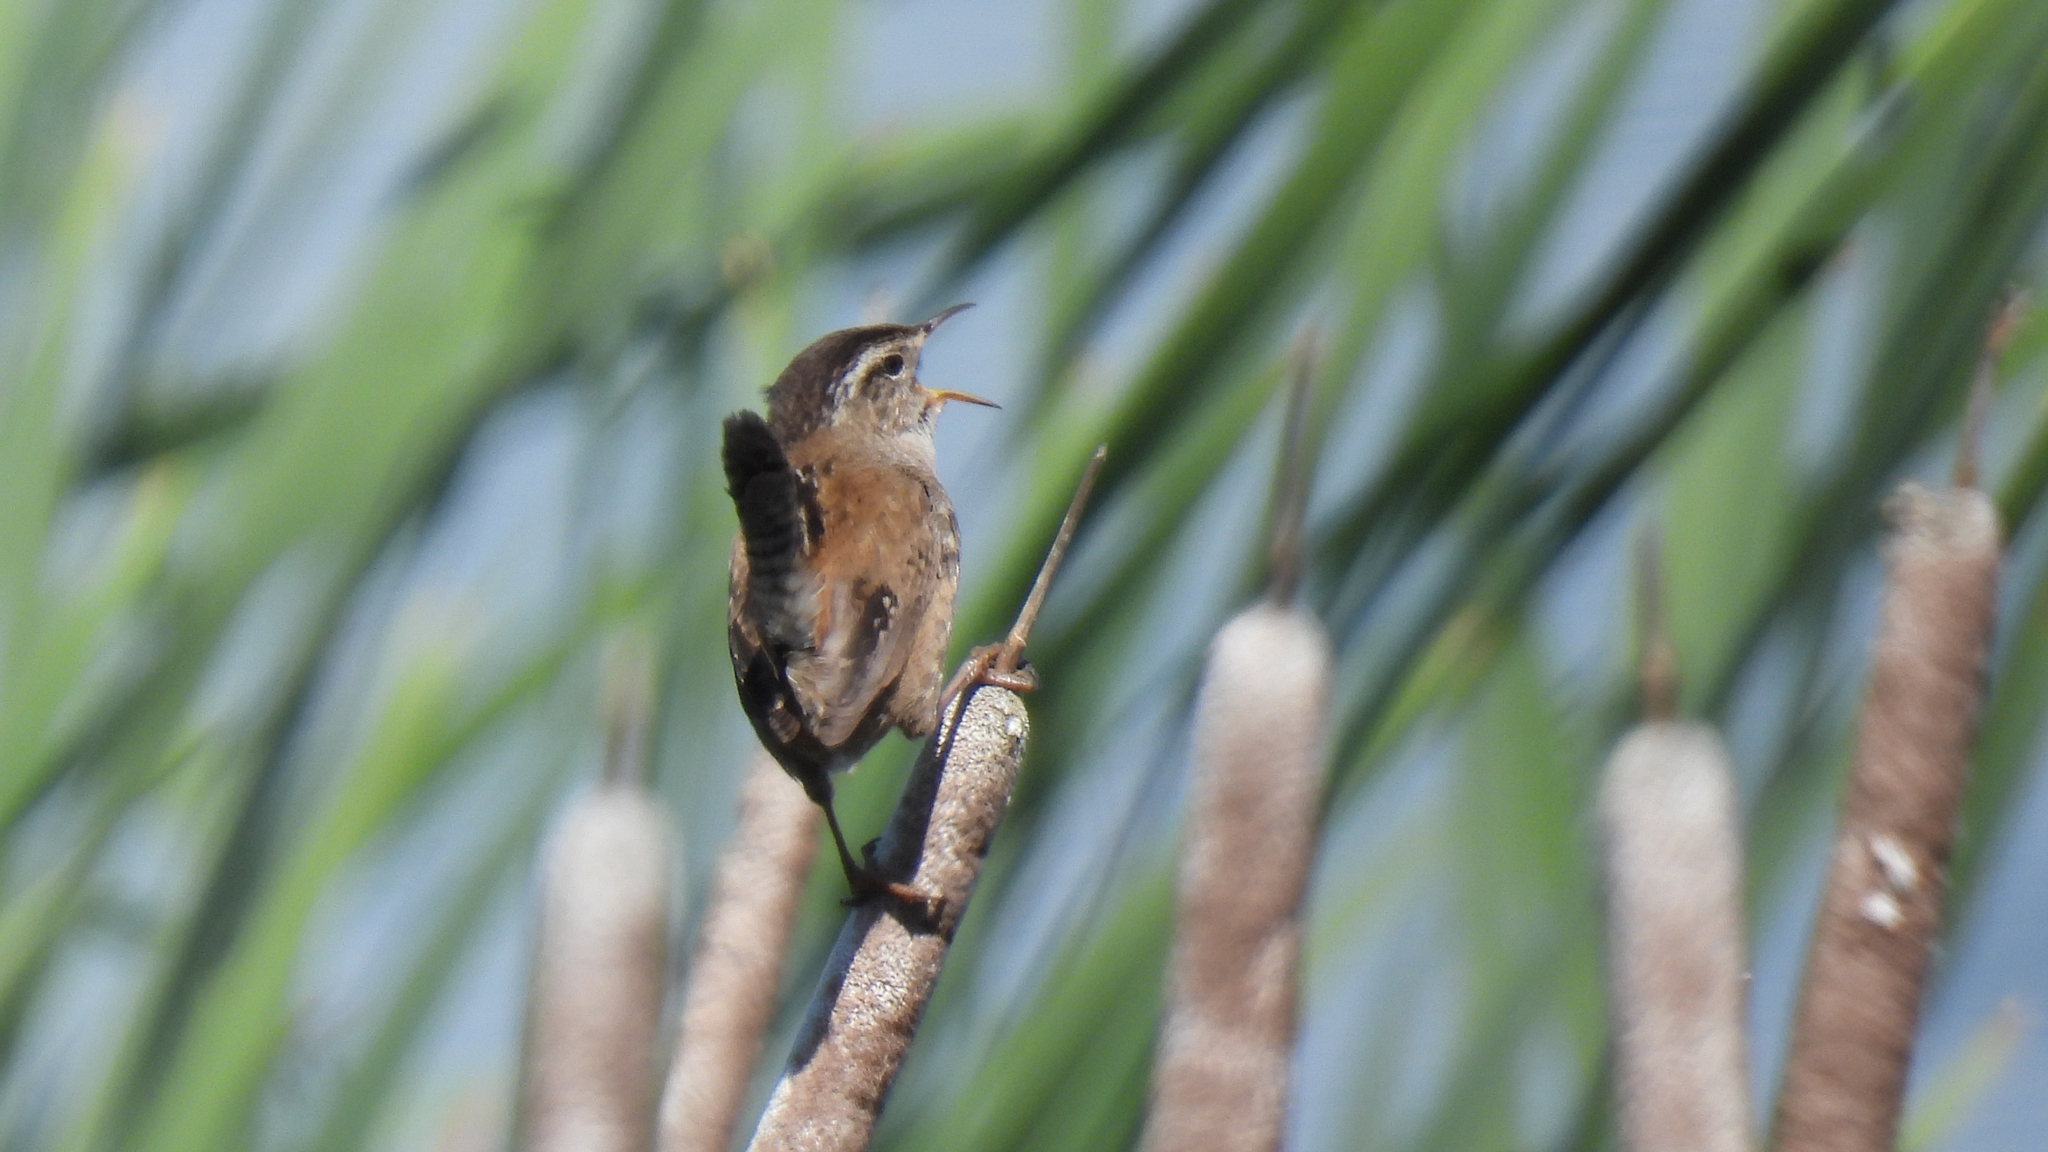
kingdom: Animalia
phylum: Chordata
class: Aves
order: Passeriformes
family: Troglodytidae
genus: Cistothorus
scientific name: Cistothorus palustris
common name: Marsh wren
